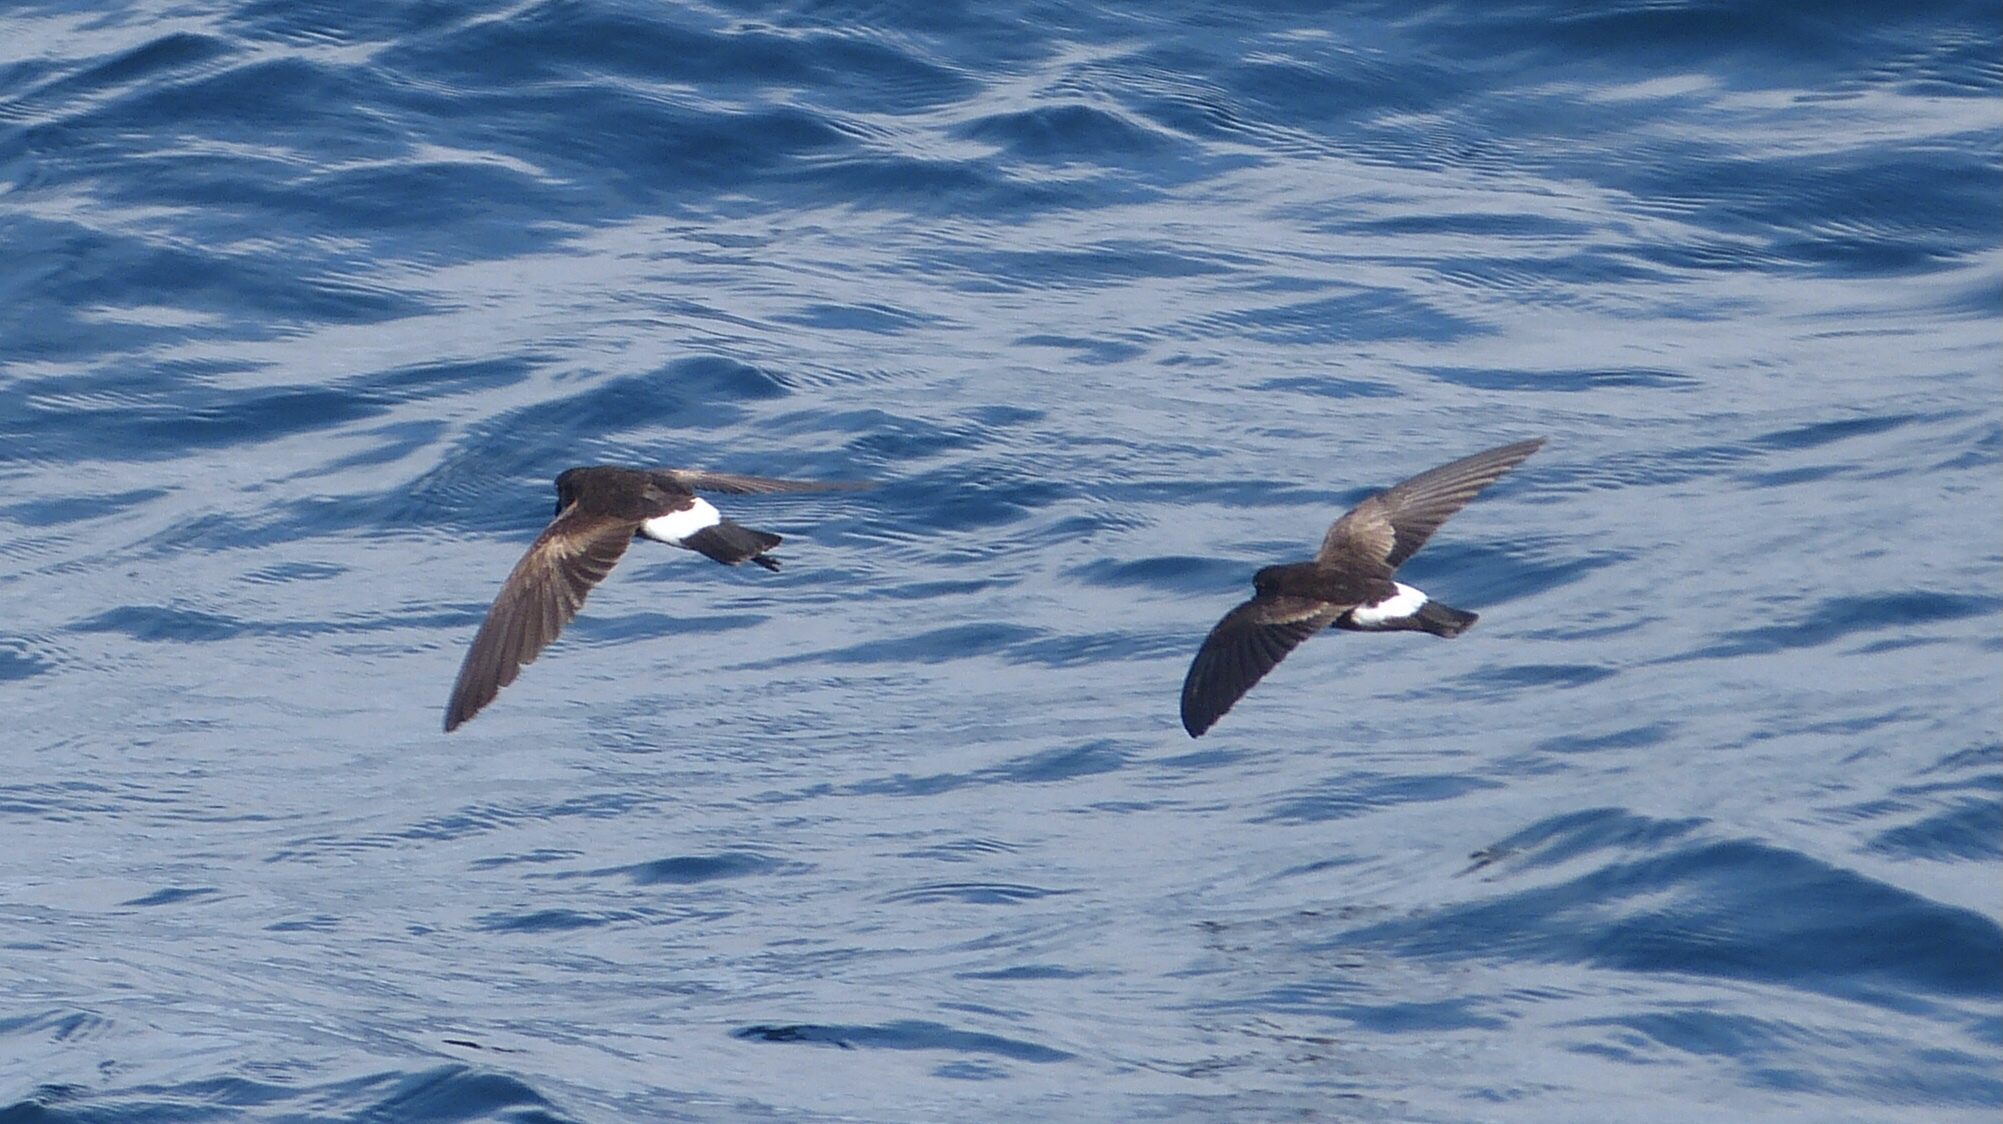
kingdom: Animalia
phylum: Chordata
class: Aves
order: Procellariiformes
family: Hydrobatidae
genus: Oceanites
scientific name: Oceanites gracilis
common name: Elliot's storm-petrel
